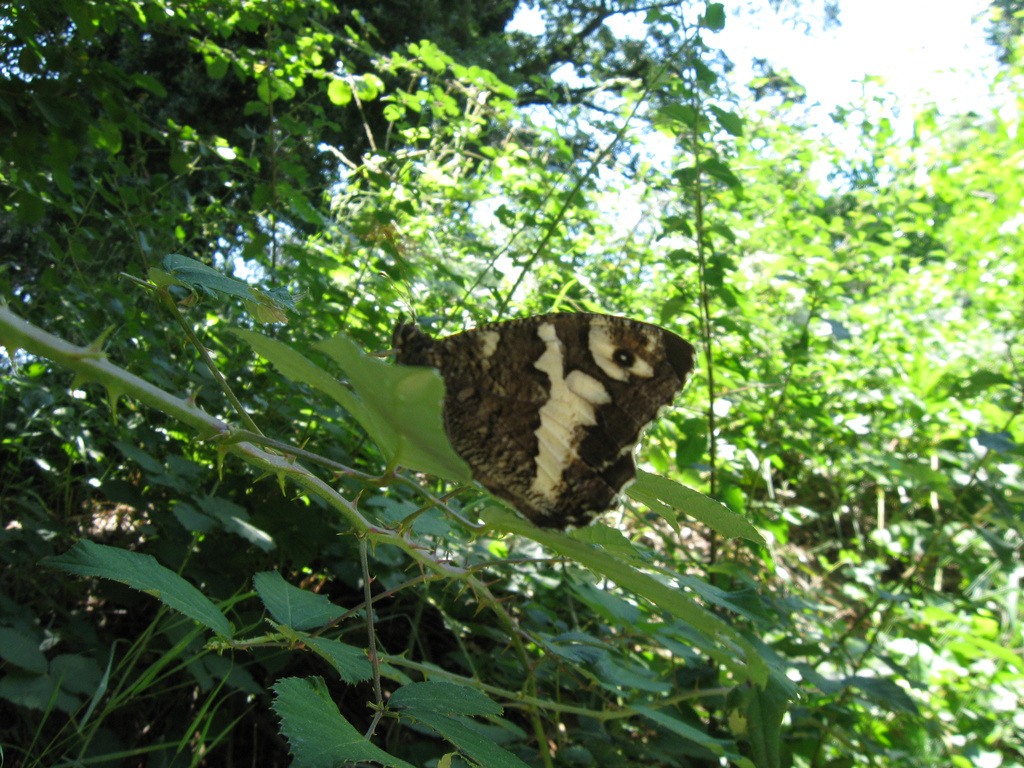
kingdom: Animalia
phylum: Arthropoda
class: Insecta
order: Lepidoptera
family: Lycaenidae
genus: Loweia
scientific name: Loweia tityrus
